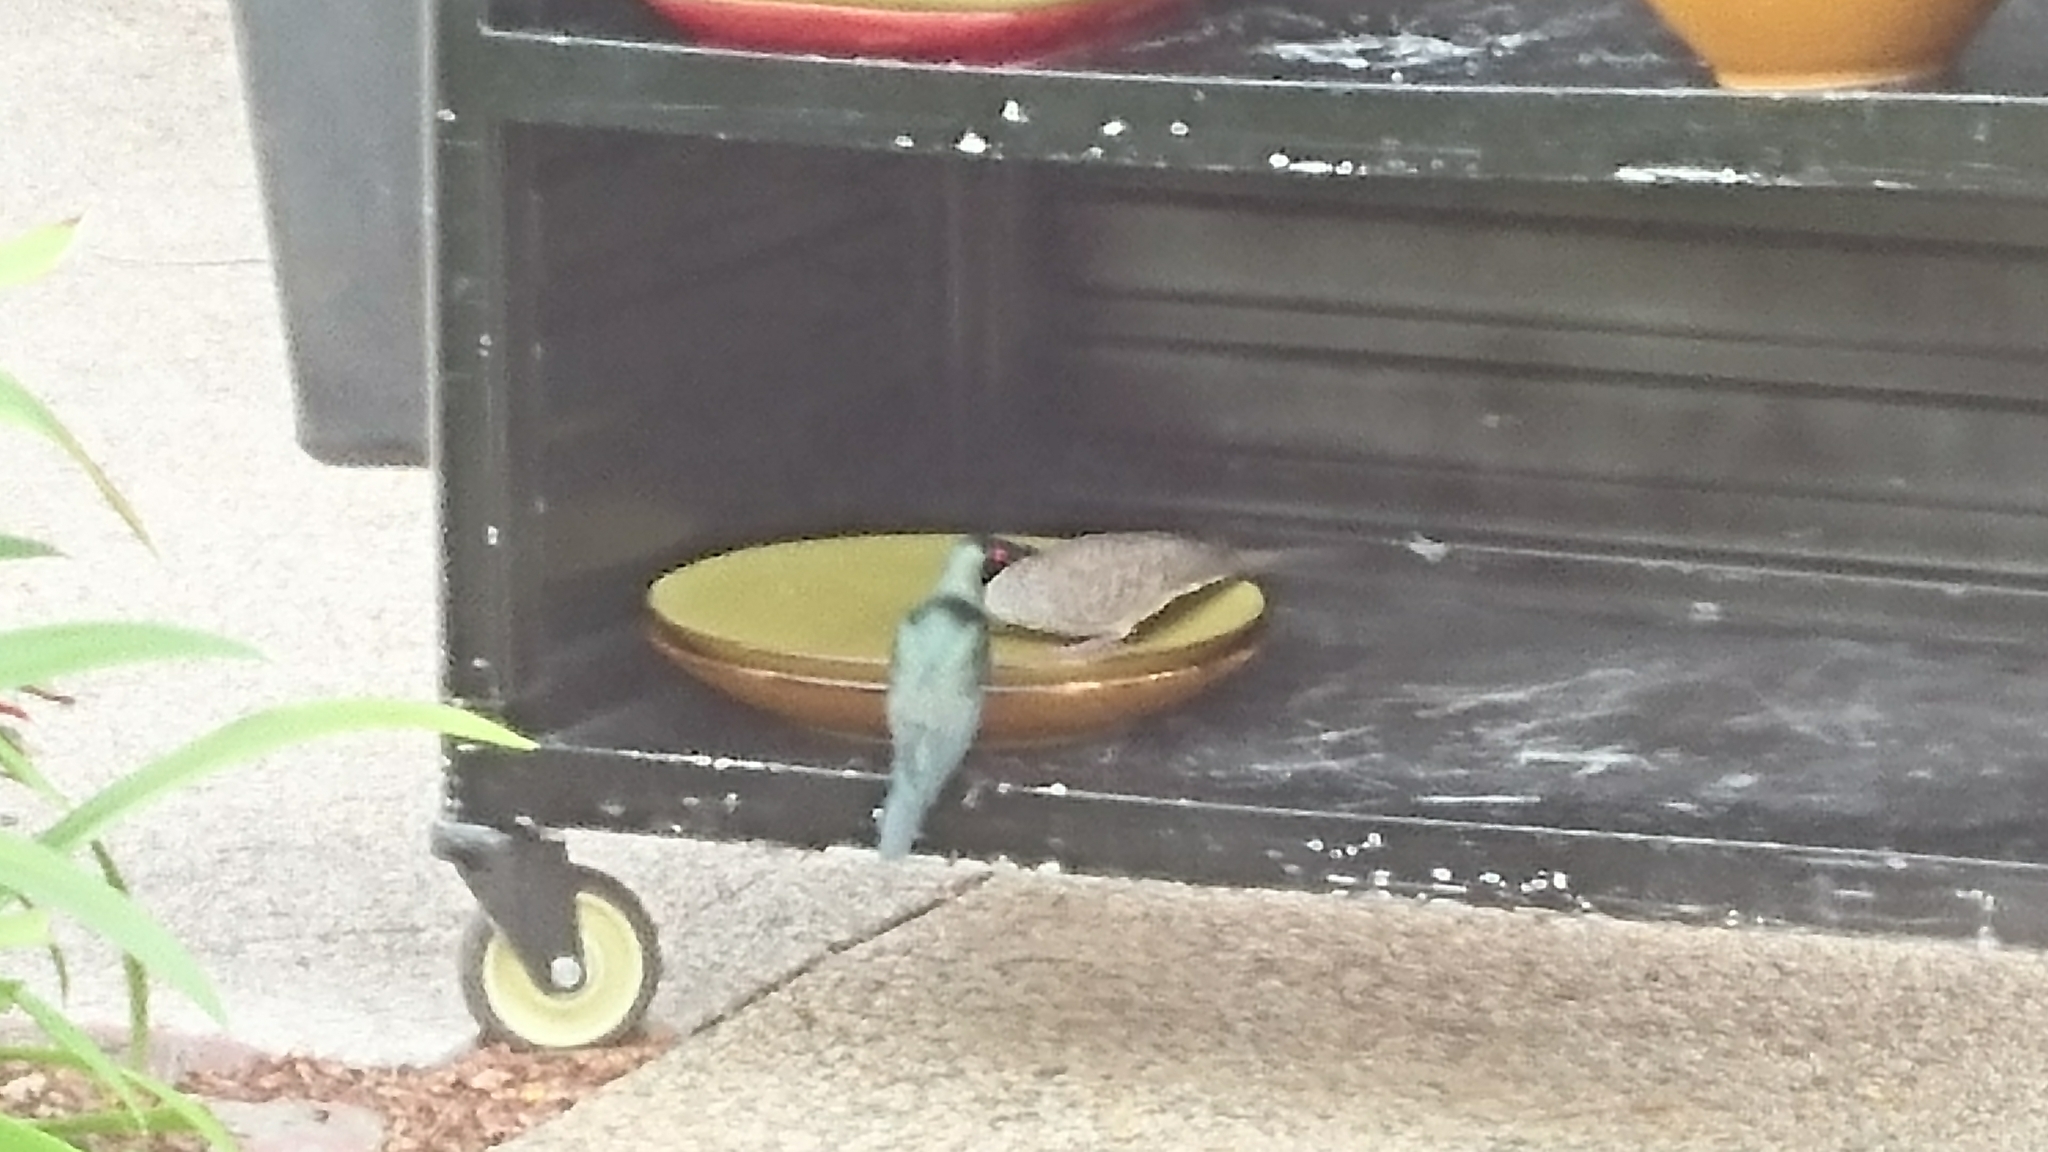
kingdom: Animalia
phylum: Chordata
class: Aves
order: Passeriformes
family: Sturnidae
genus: Aplonis
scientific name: Aplonis panayensis
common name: Asian glossy starling
